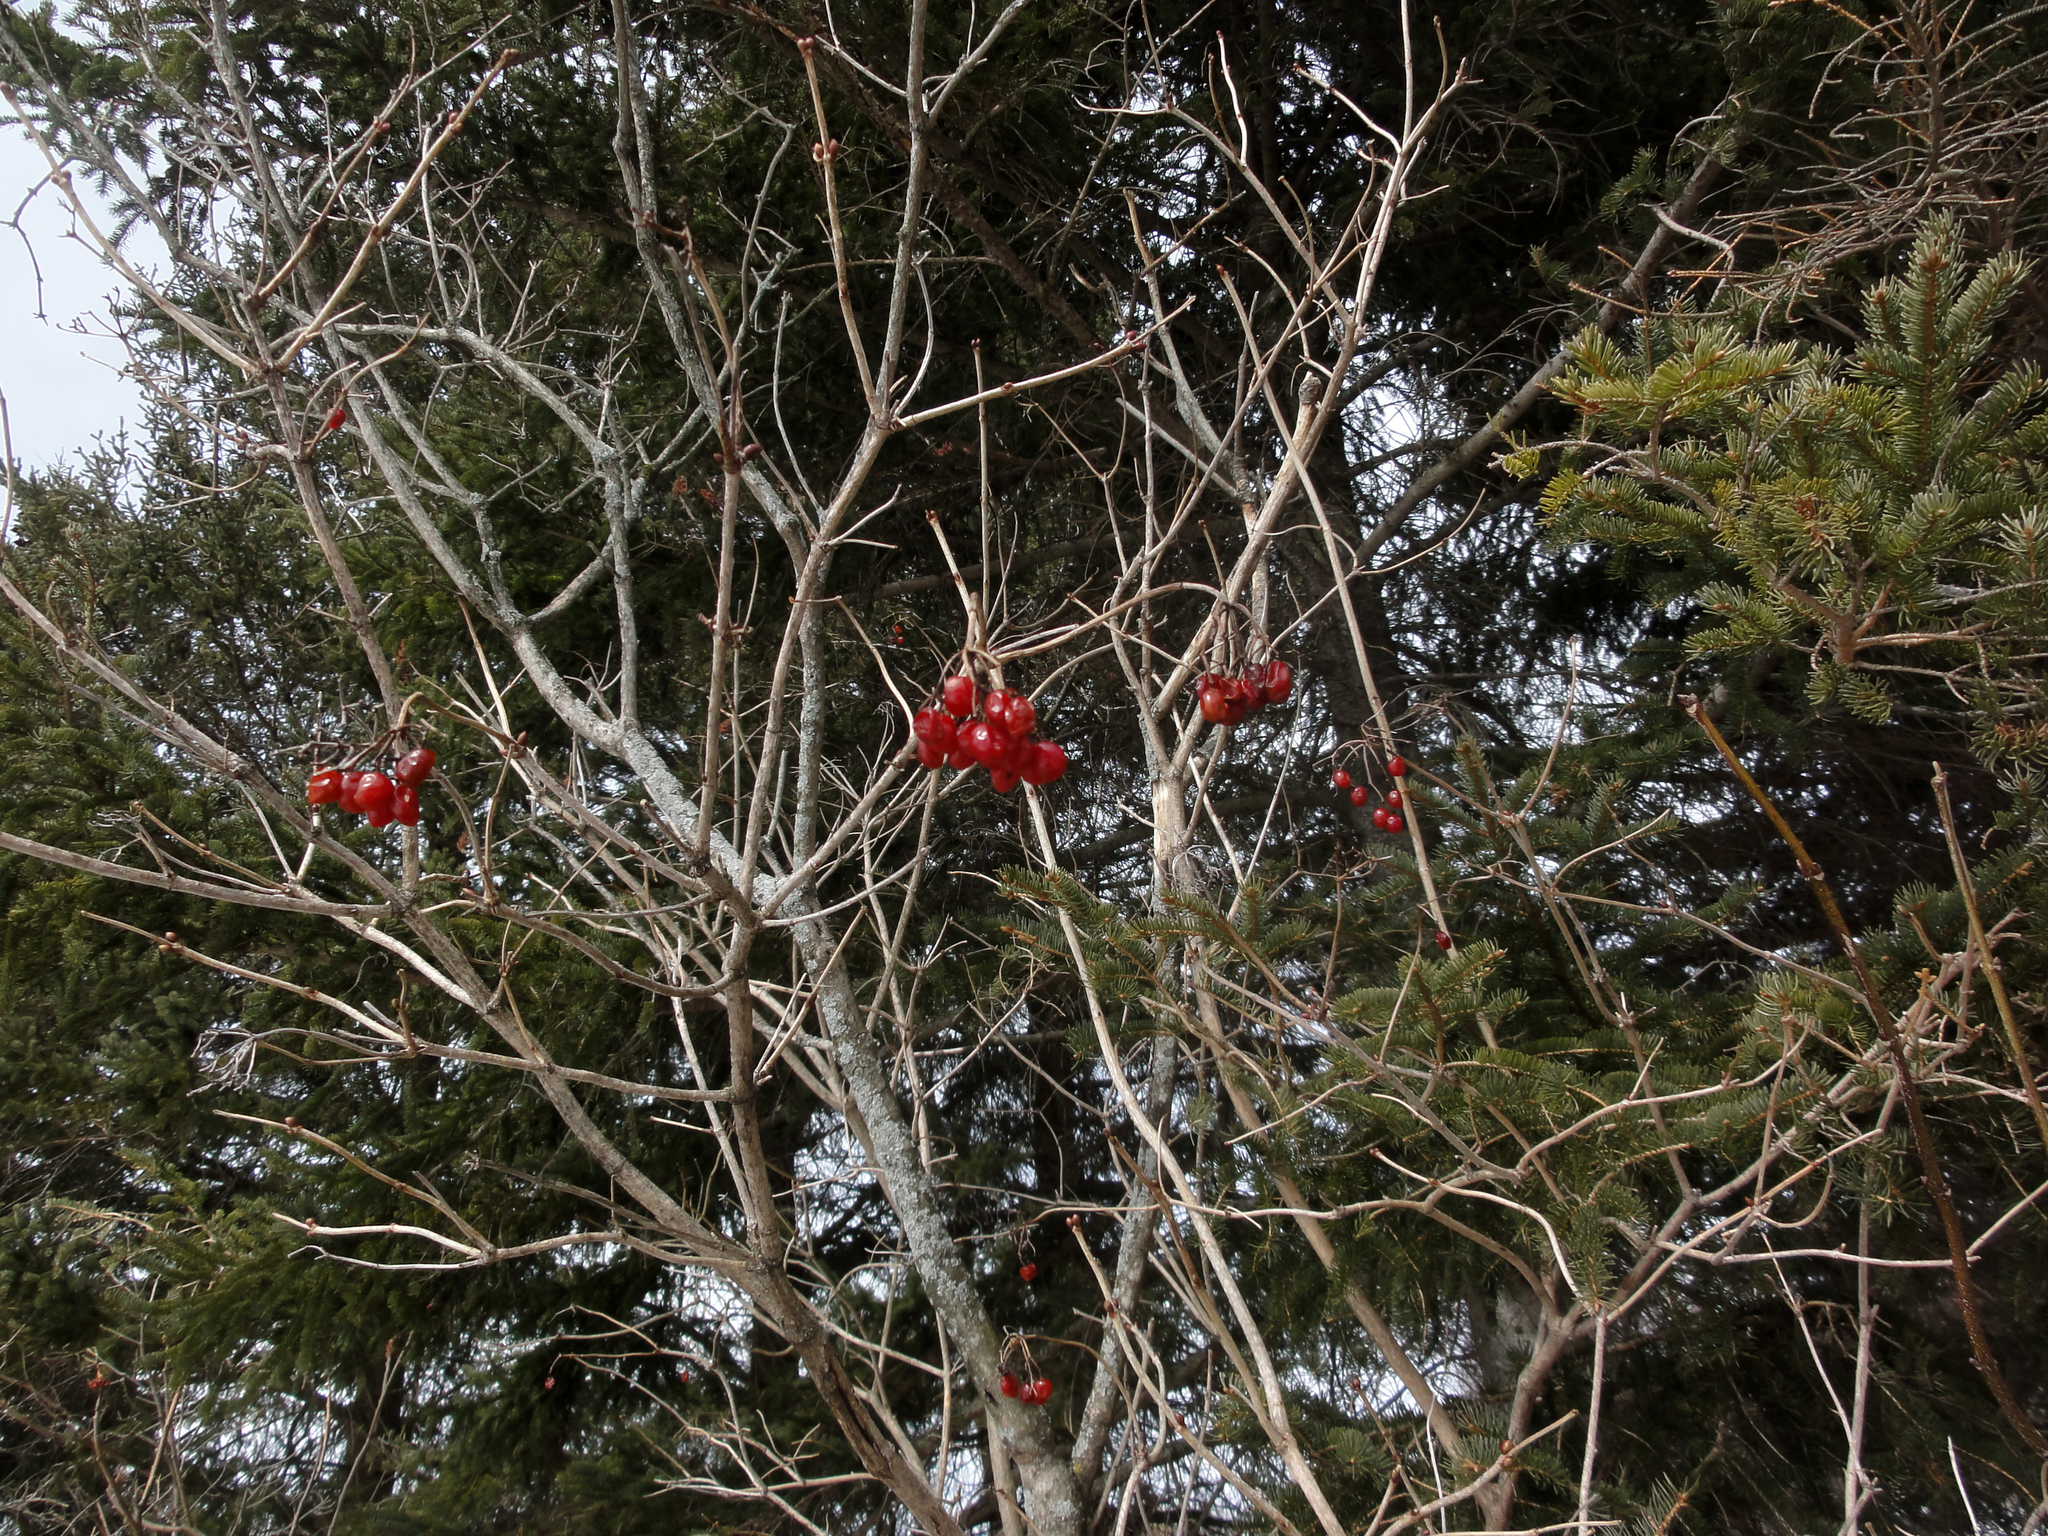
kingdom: Plantae
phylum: Tracheophyta
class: Magnoliopsida
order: Dipsacales
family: Viburnaceae
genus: Viburnum
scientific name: Viburnum opulus
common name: Guelder-rose
